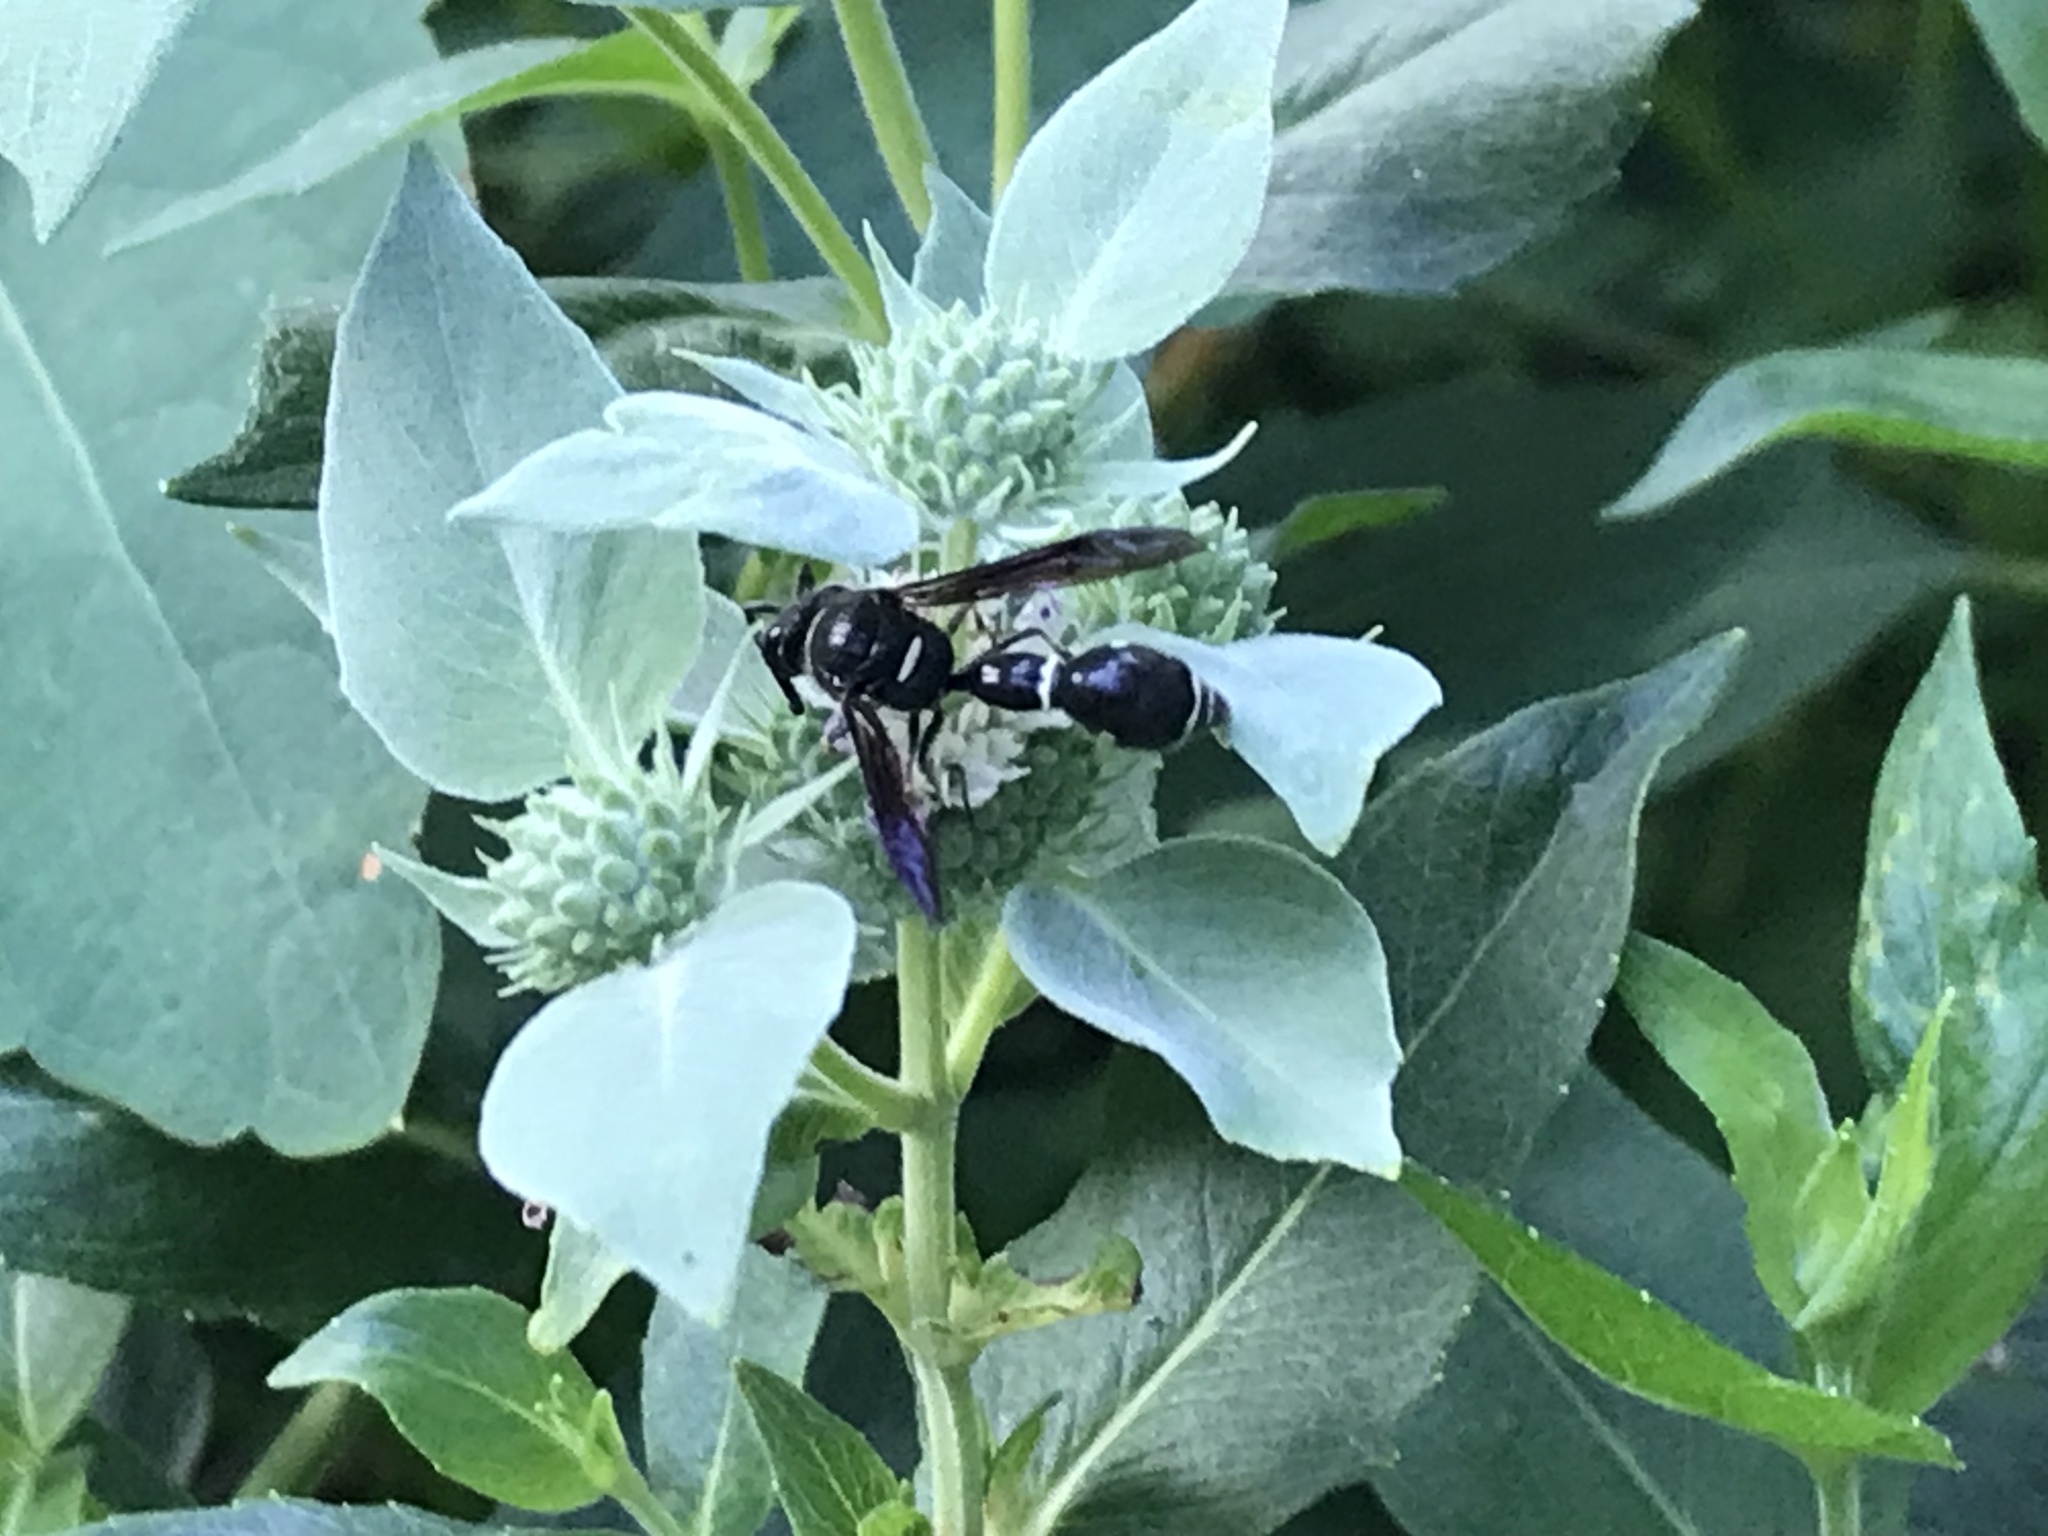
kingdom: Animalia
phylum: Arthropoda
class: Insecta
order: Hymenoptera
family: Vespidae
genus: Eumenes
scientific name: Eumenes fraternus
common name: Fraternal potter wasp
